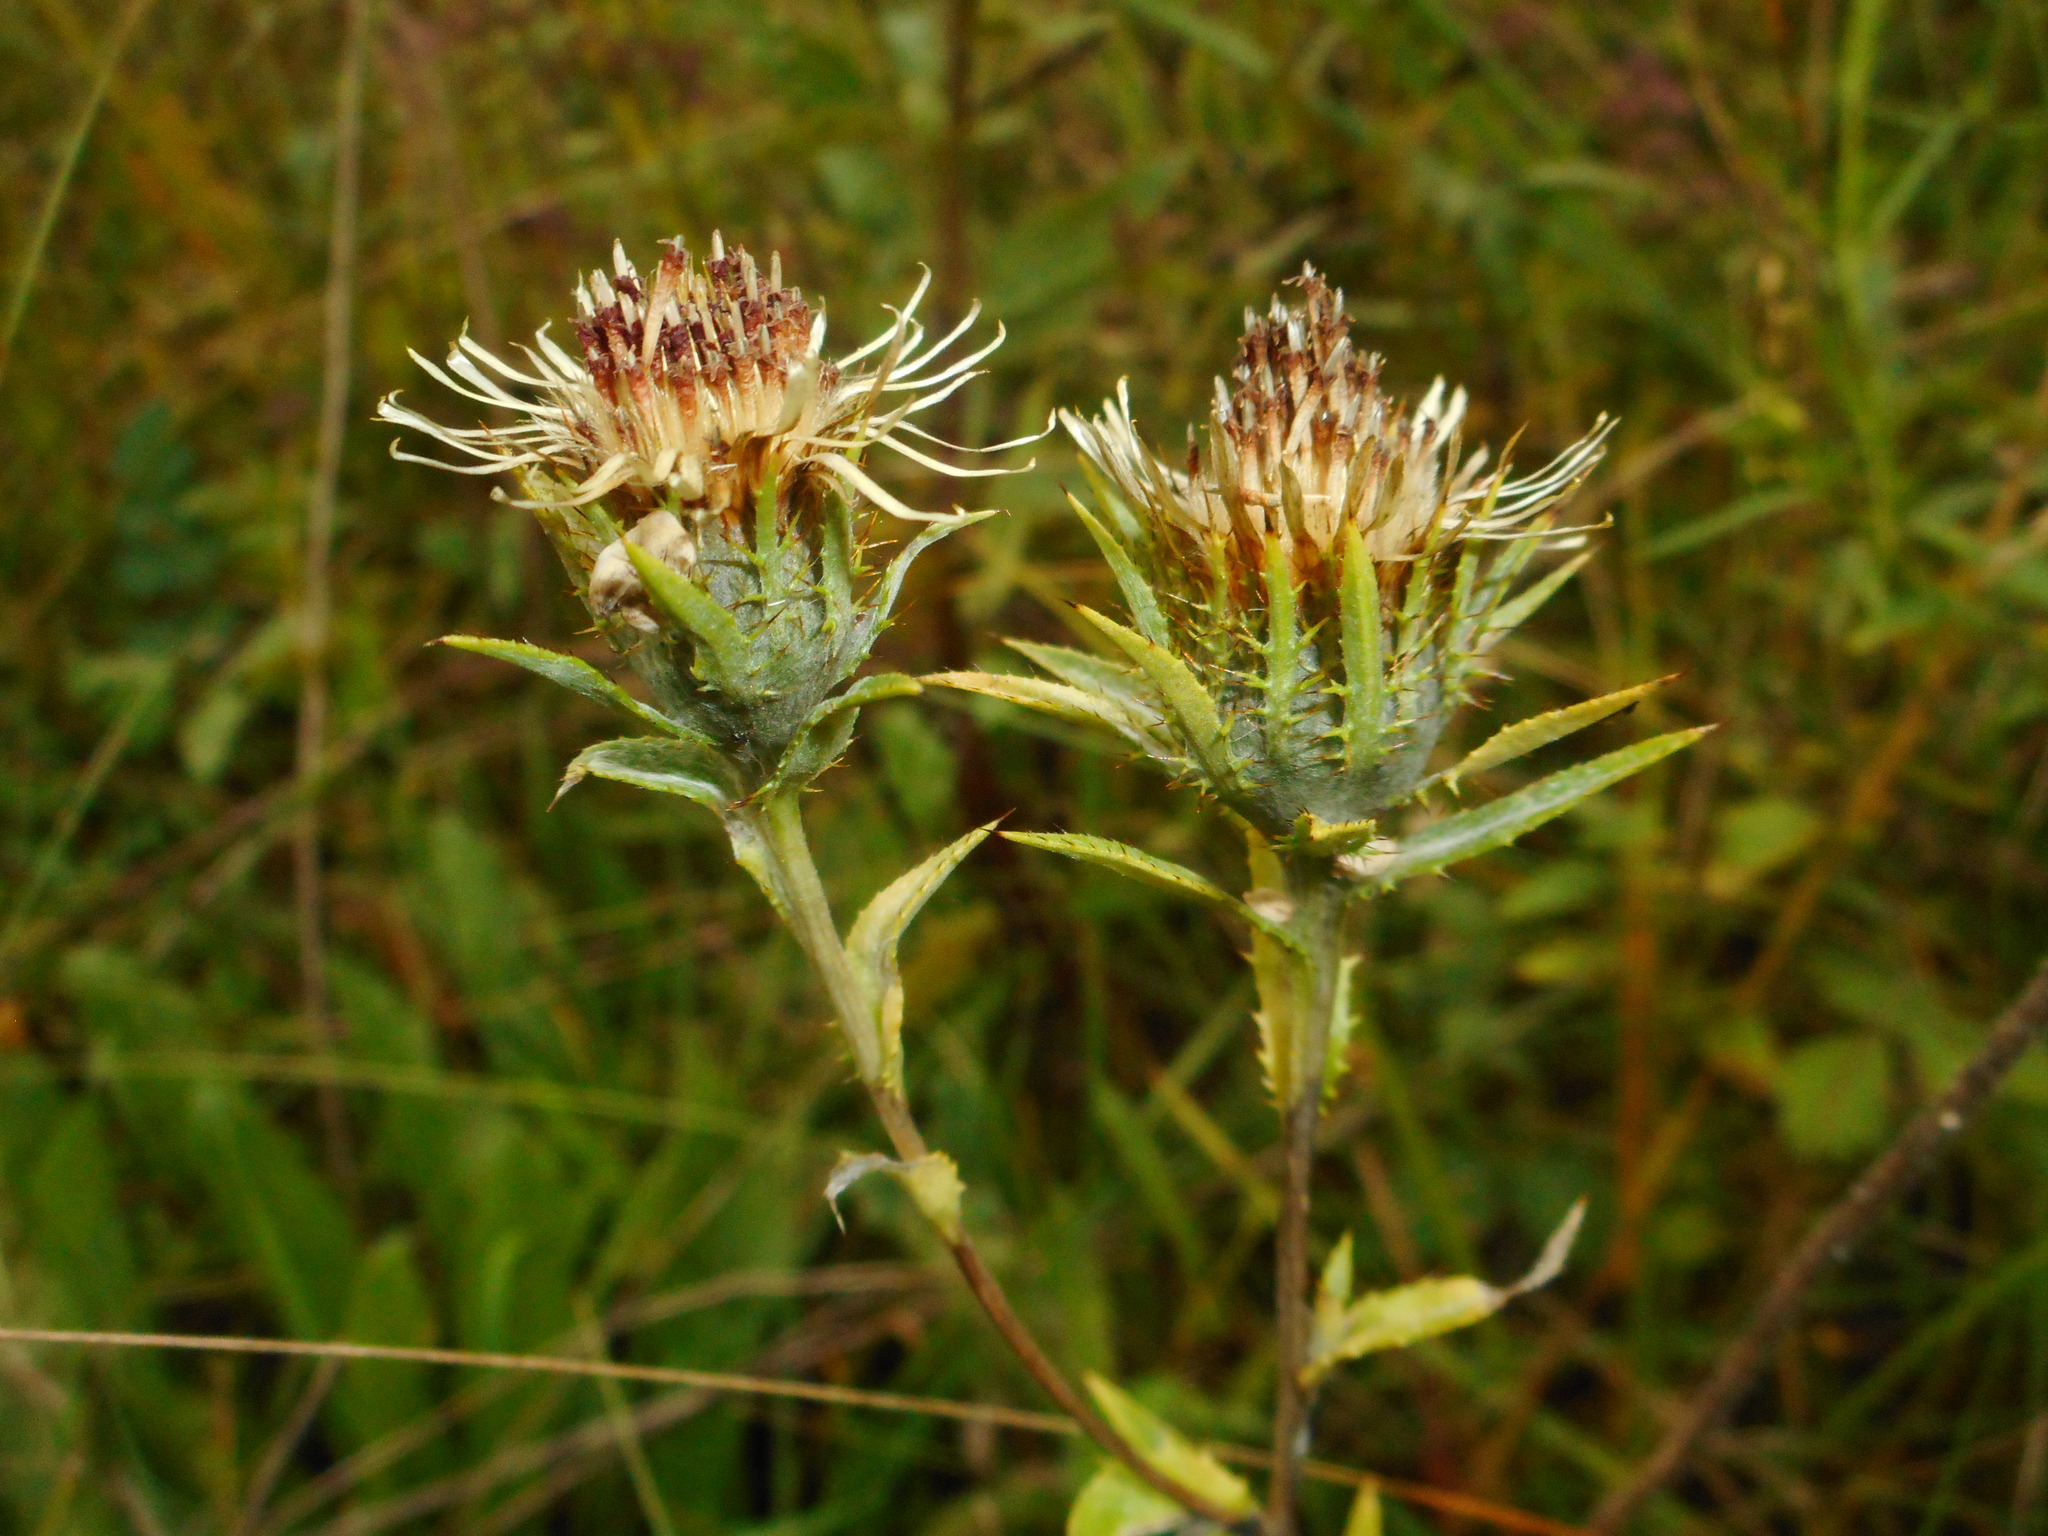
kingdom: Plantae
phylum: Tracheophyta
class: Magnoliopsida
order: Asterales
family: Asteraceae
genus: Carlina
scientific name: Carlina biebersteinii
